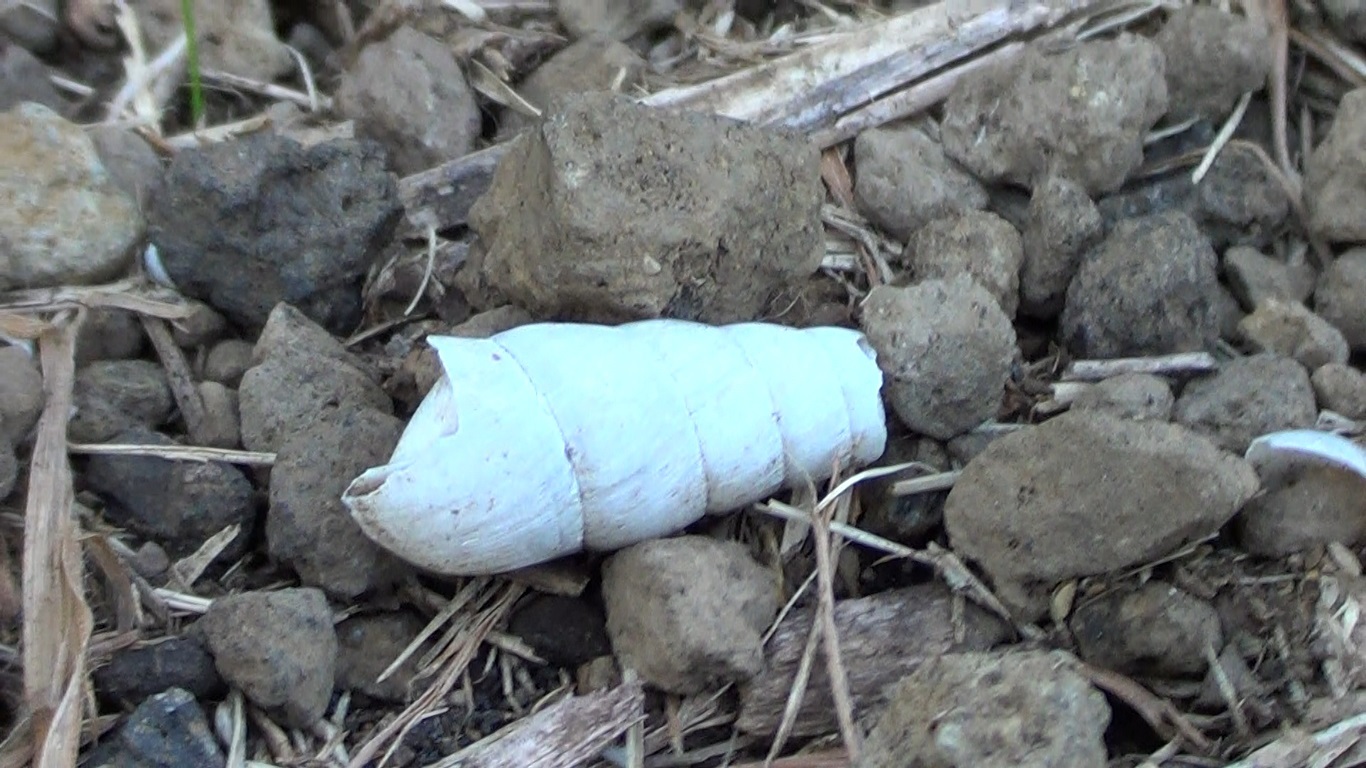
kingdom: Animalia
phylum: Mollusca
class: Gastropoda
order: Stylommatophora
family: Achatinidae
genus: Rumina
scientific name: Rumina decollata
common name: Decollate snail
